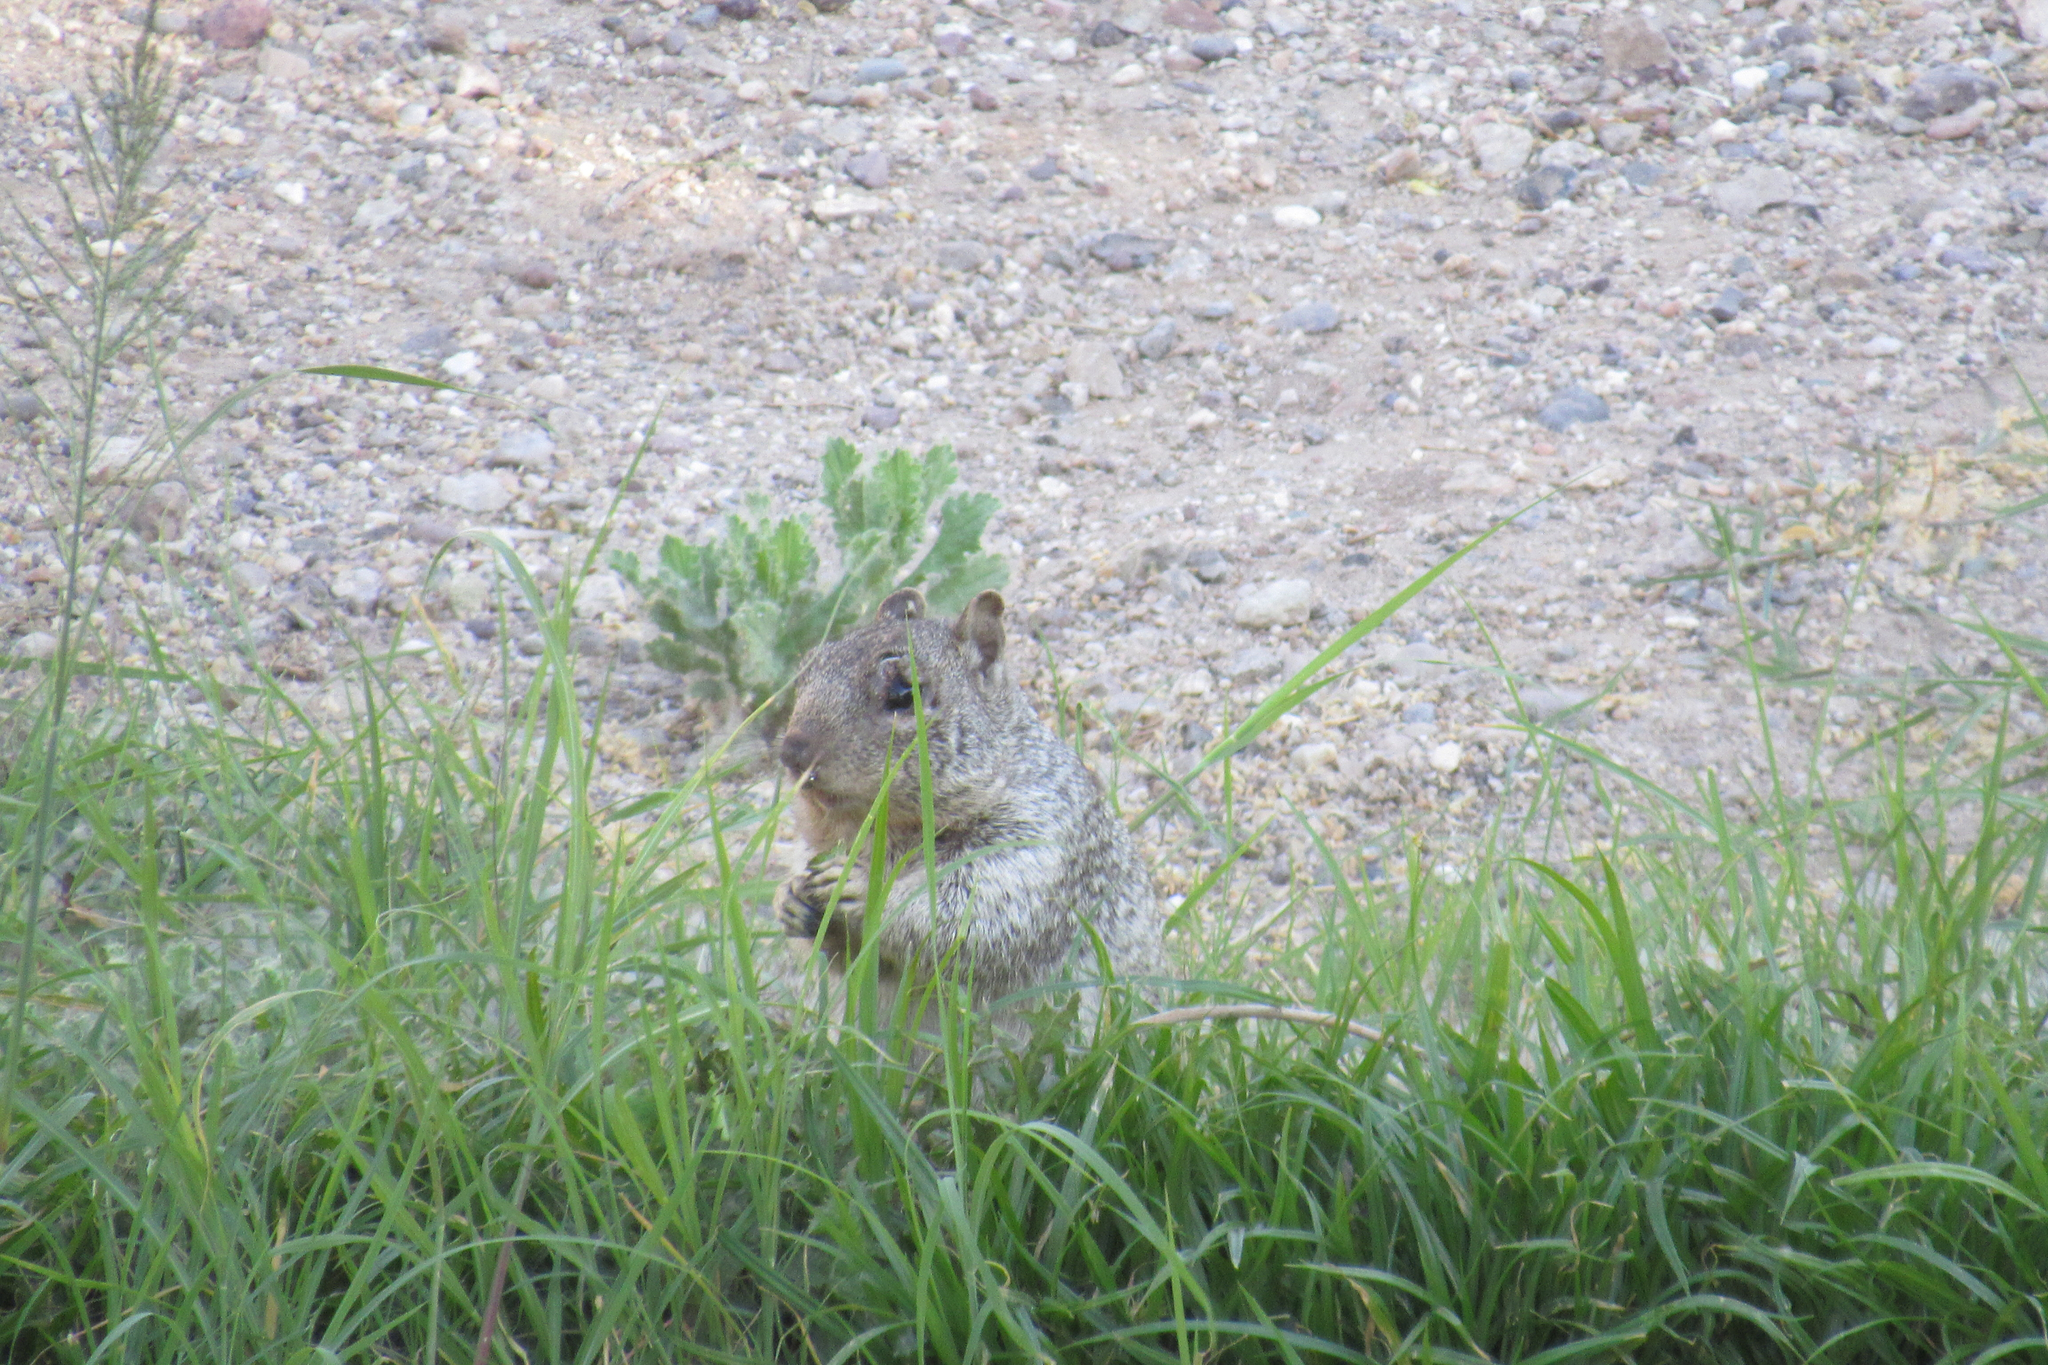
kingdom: Animalia
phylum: Chordata
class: Mammalia
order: Rodentia
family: Sciuridae
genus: Otospermophilus
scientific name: Otospermophilus variegatus
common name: Rock squirrel
